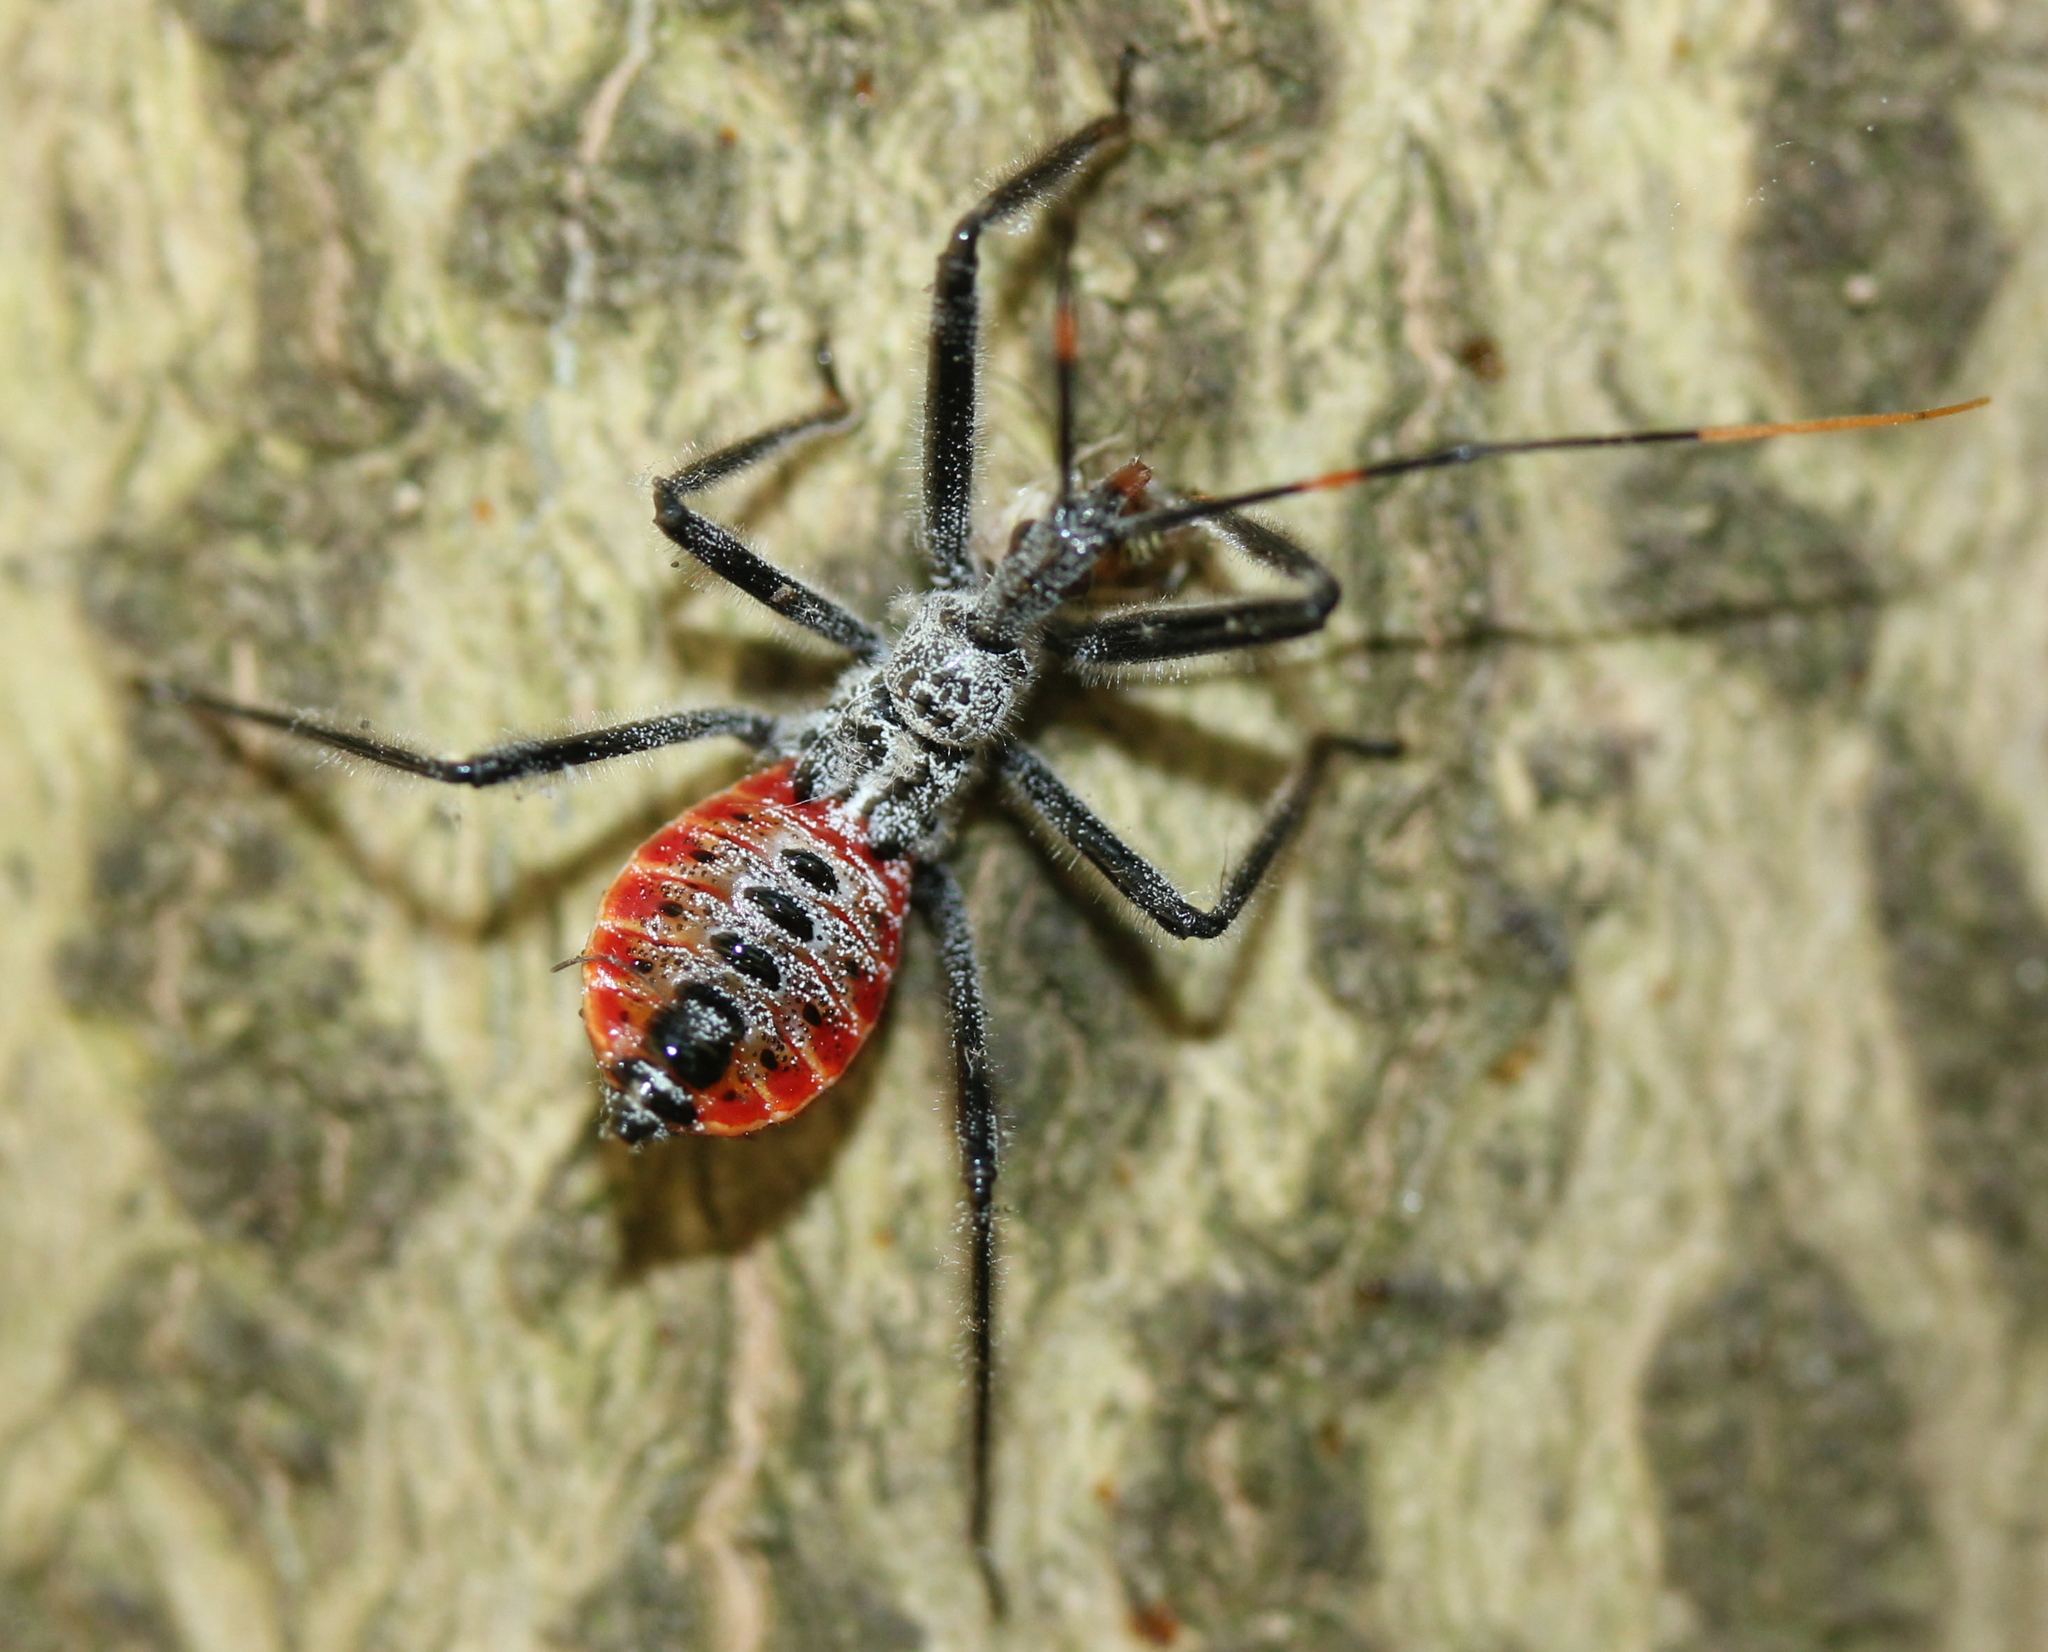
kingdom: Animalia
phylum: Arthropoda
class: Insecta
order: Hemiptera
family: Reduviidae
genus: Arilus
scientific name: Arilus cristatus
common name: North american wheel bug
